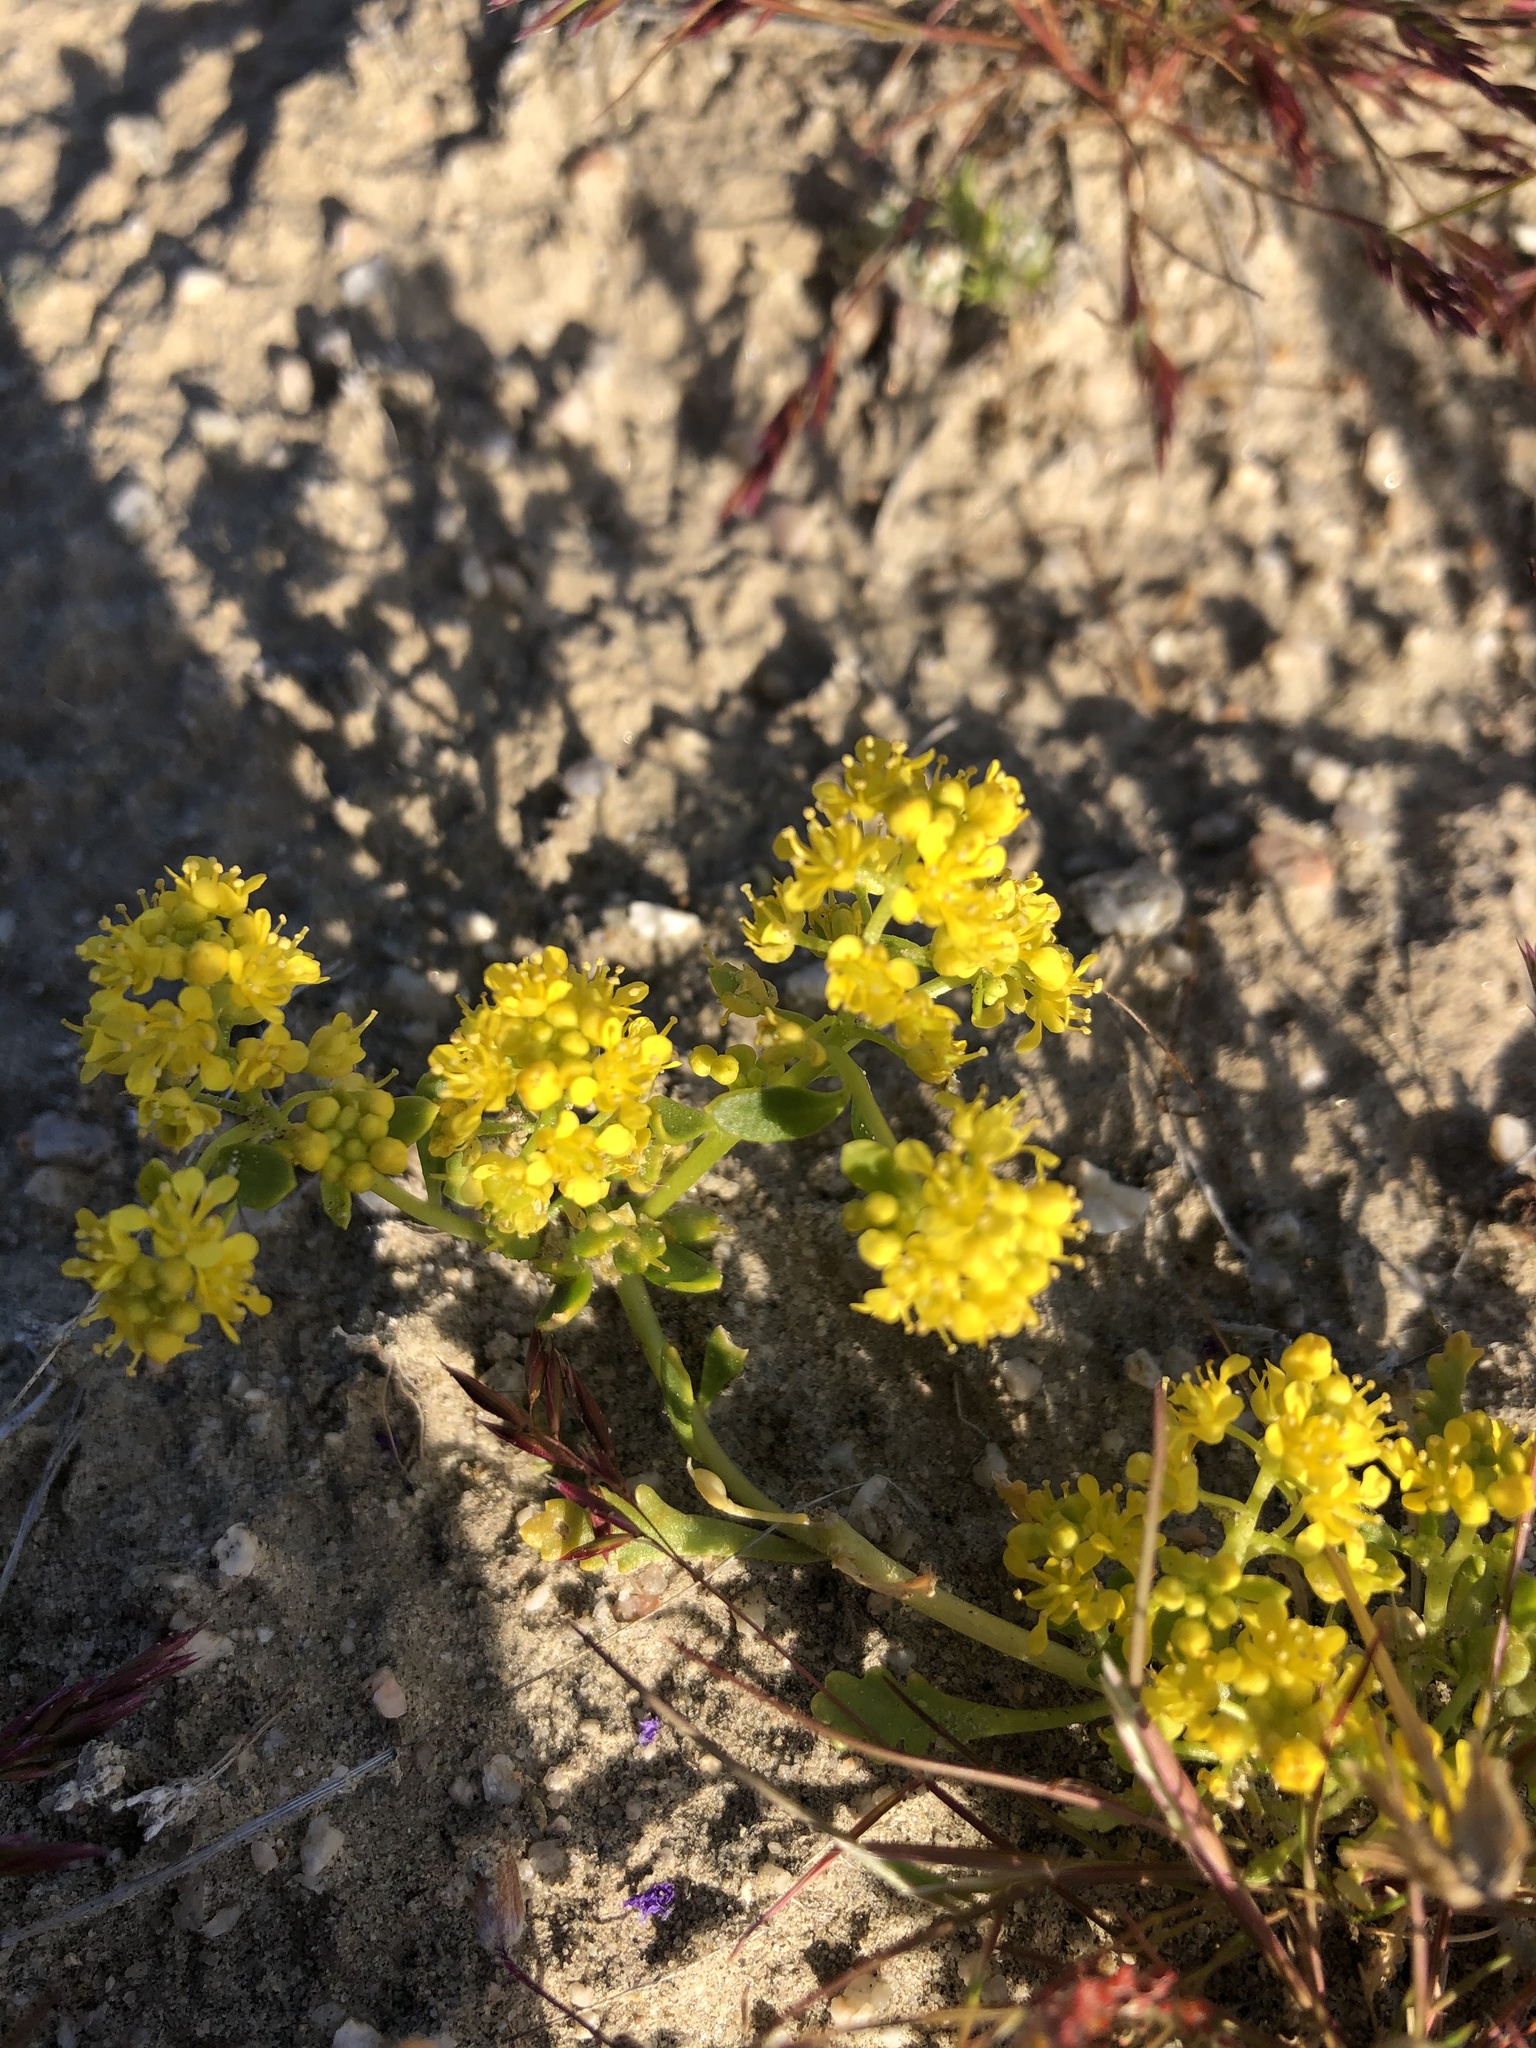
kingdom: Plantae
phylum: Tracheophyta
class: Magnoliopsida
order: Brassicales
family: Brassicaceae
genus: Lepidium
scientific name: Lepidium flavum
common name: Yellow pepperwort
